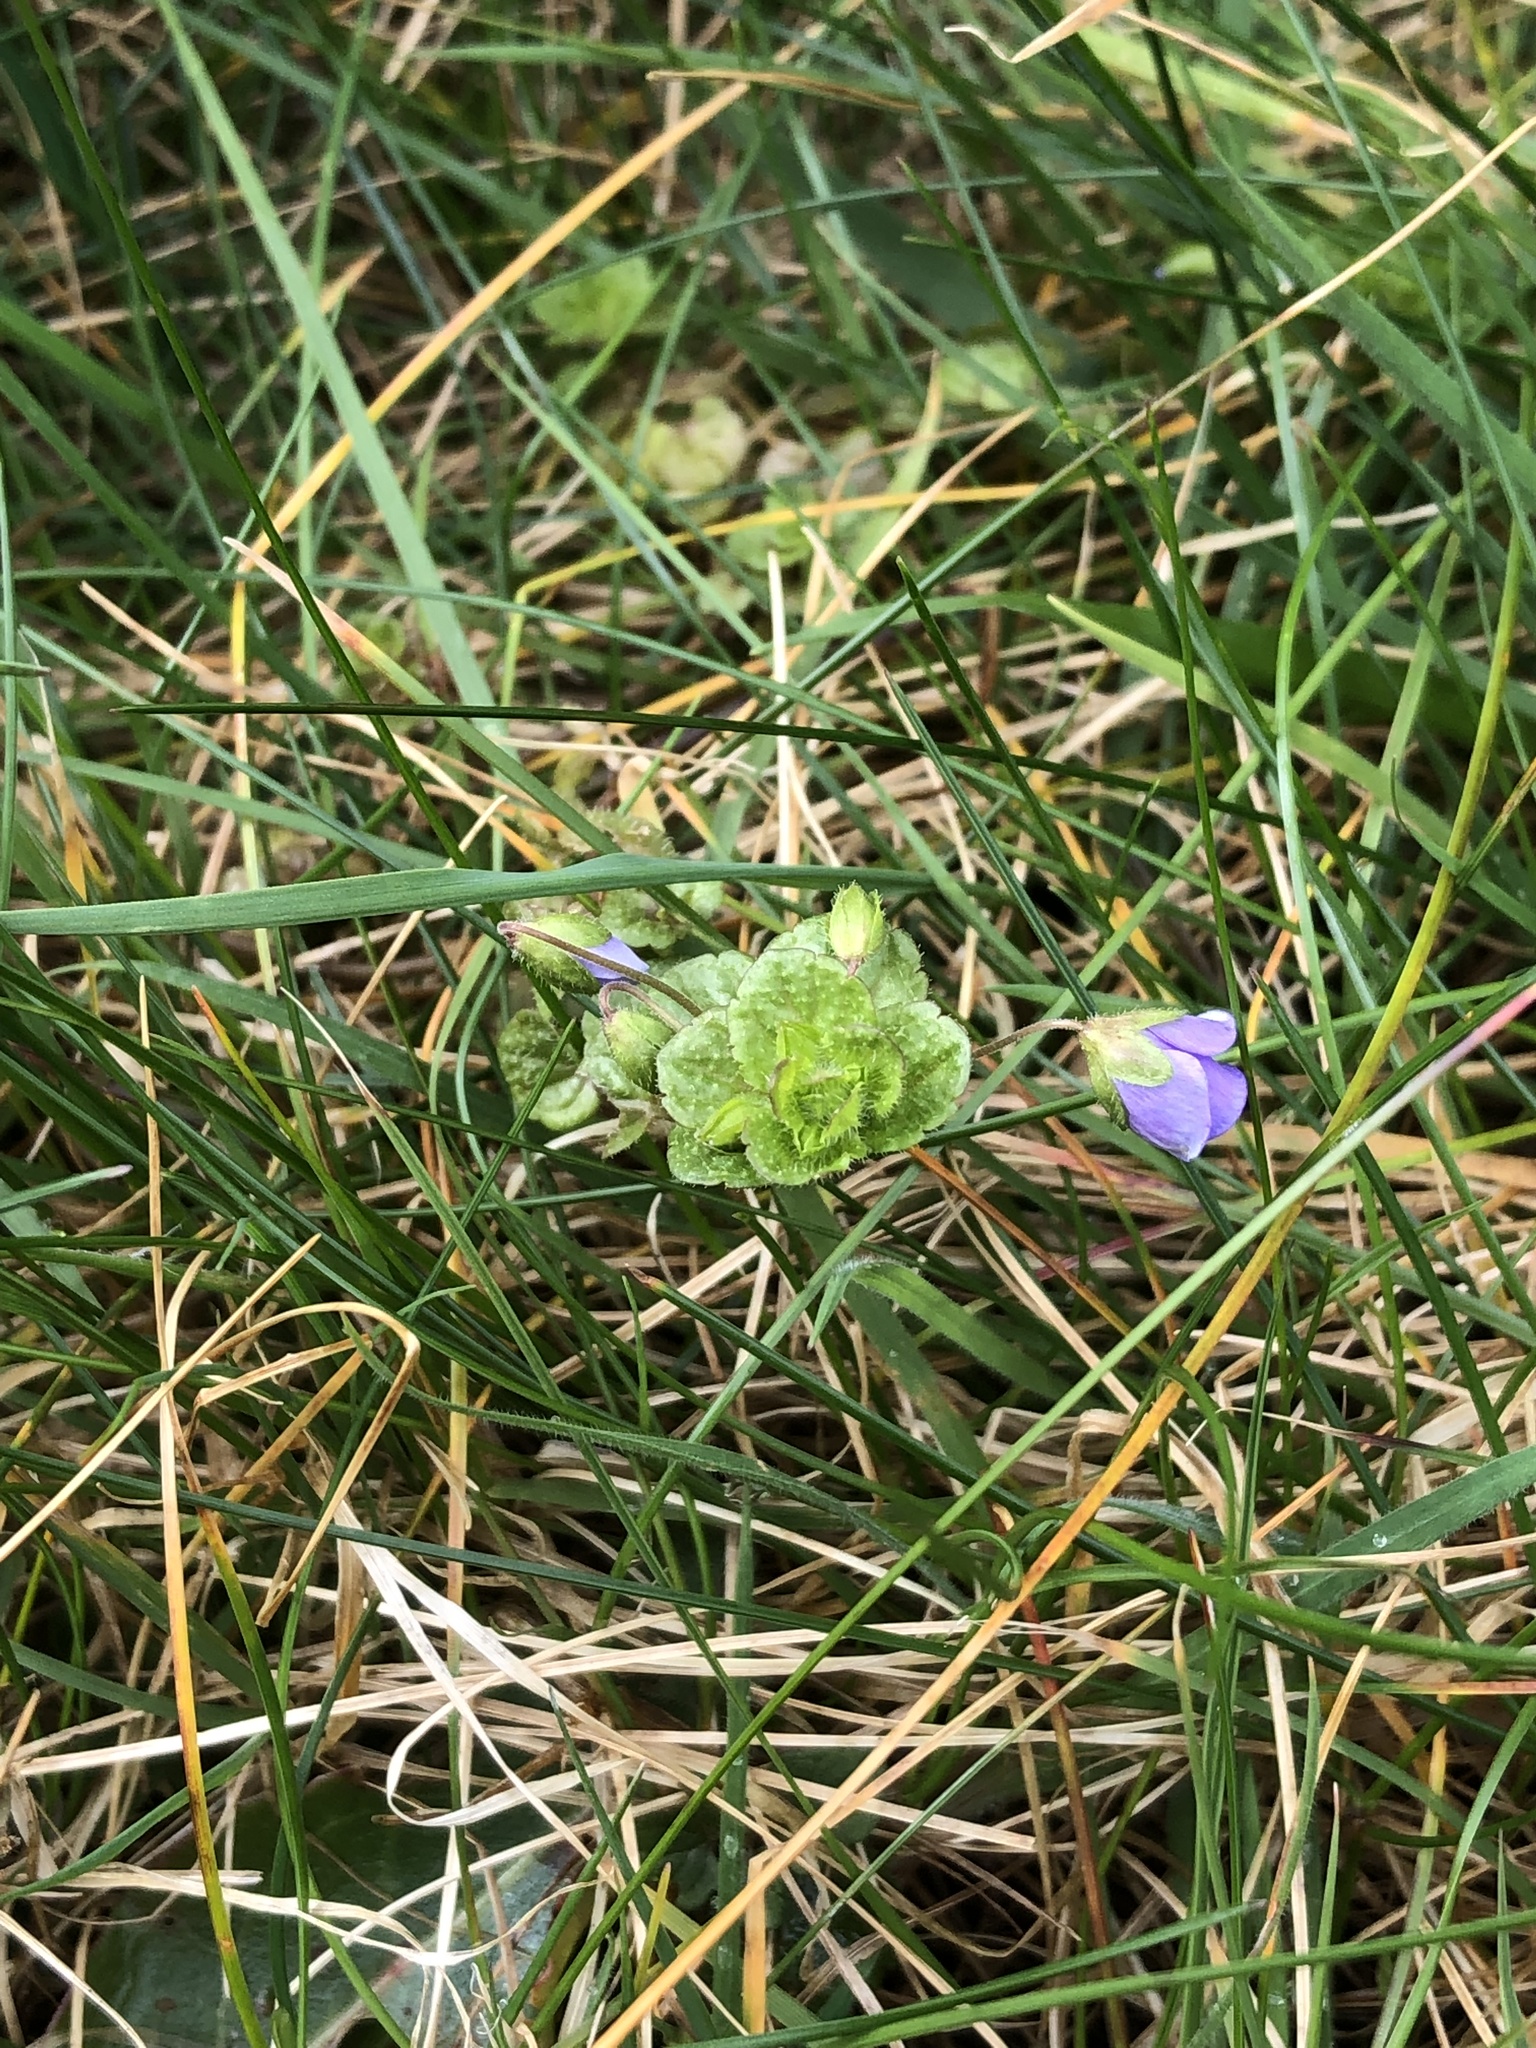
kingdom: Plantae
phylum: Tracheophyta
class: Magnoliopsida
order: Lamiales
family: Plantaginaceae
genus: Veronica
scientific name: Veronica filiformis
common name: Slender speedwell
